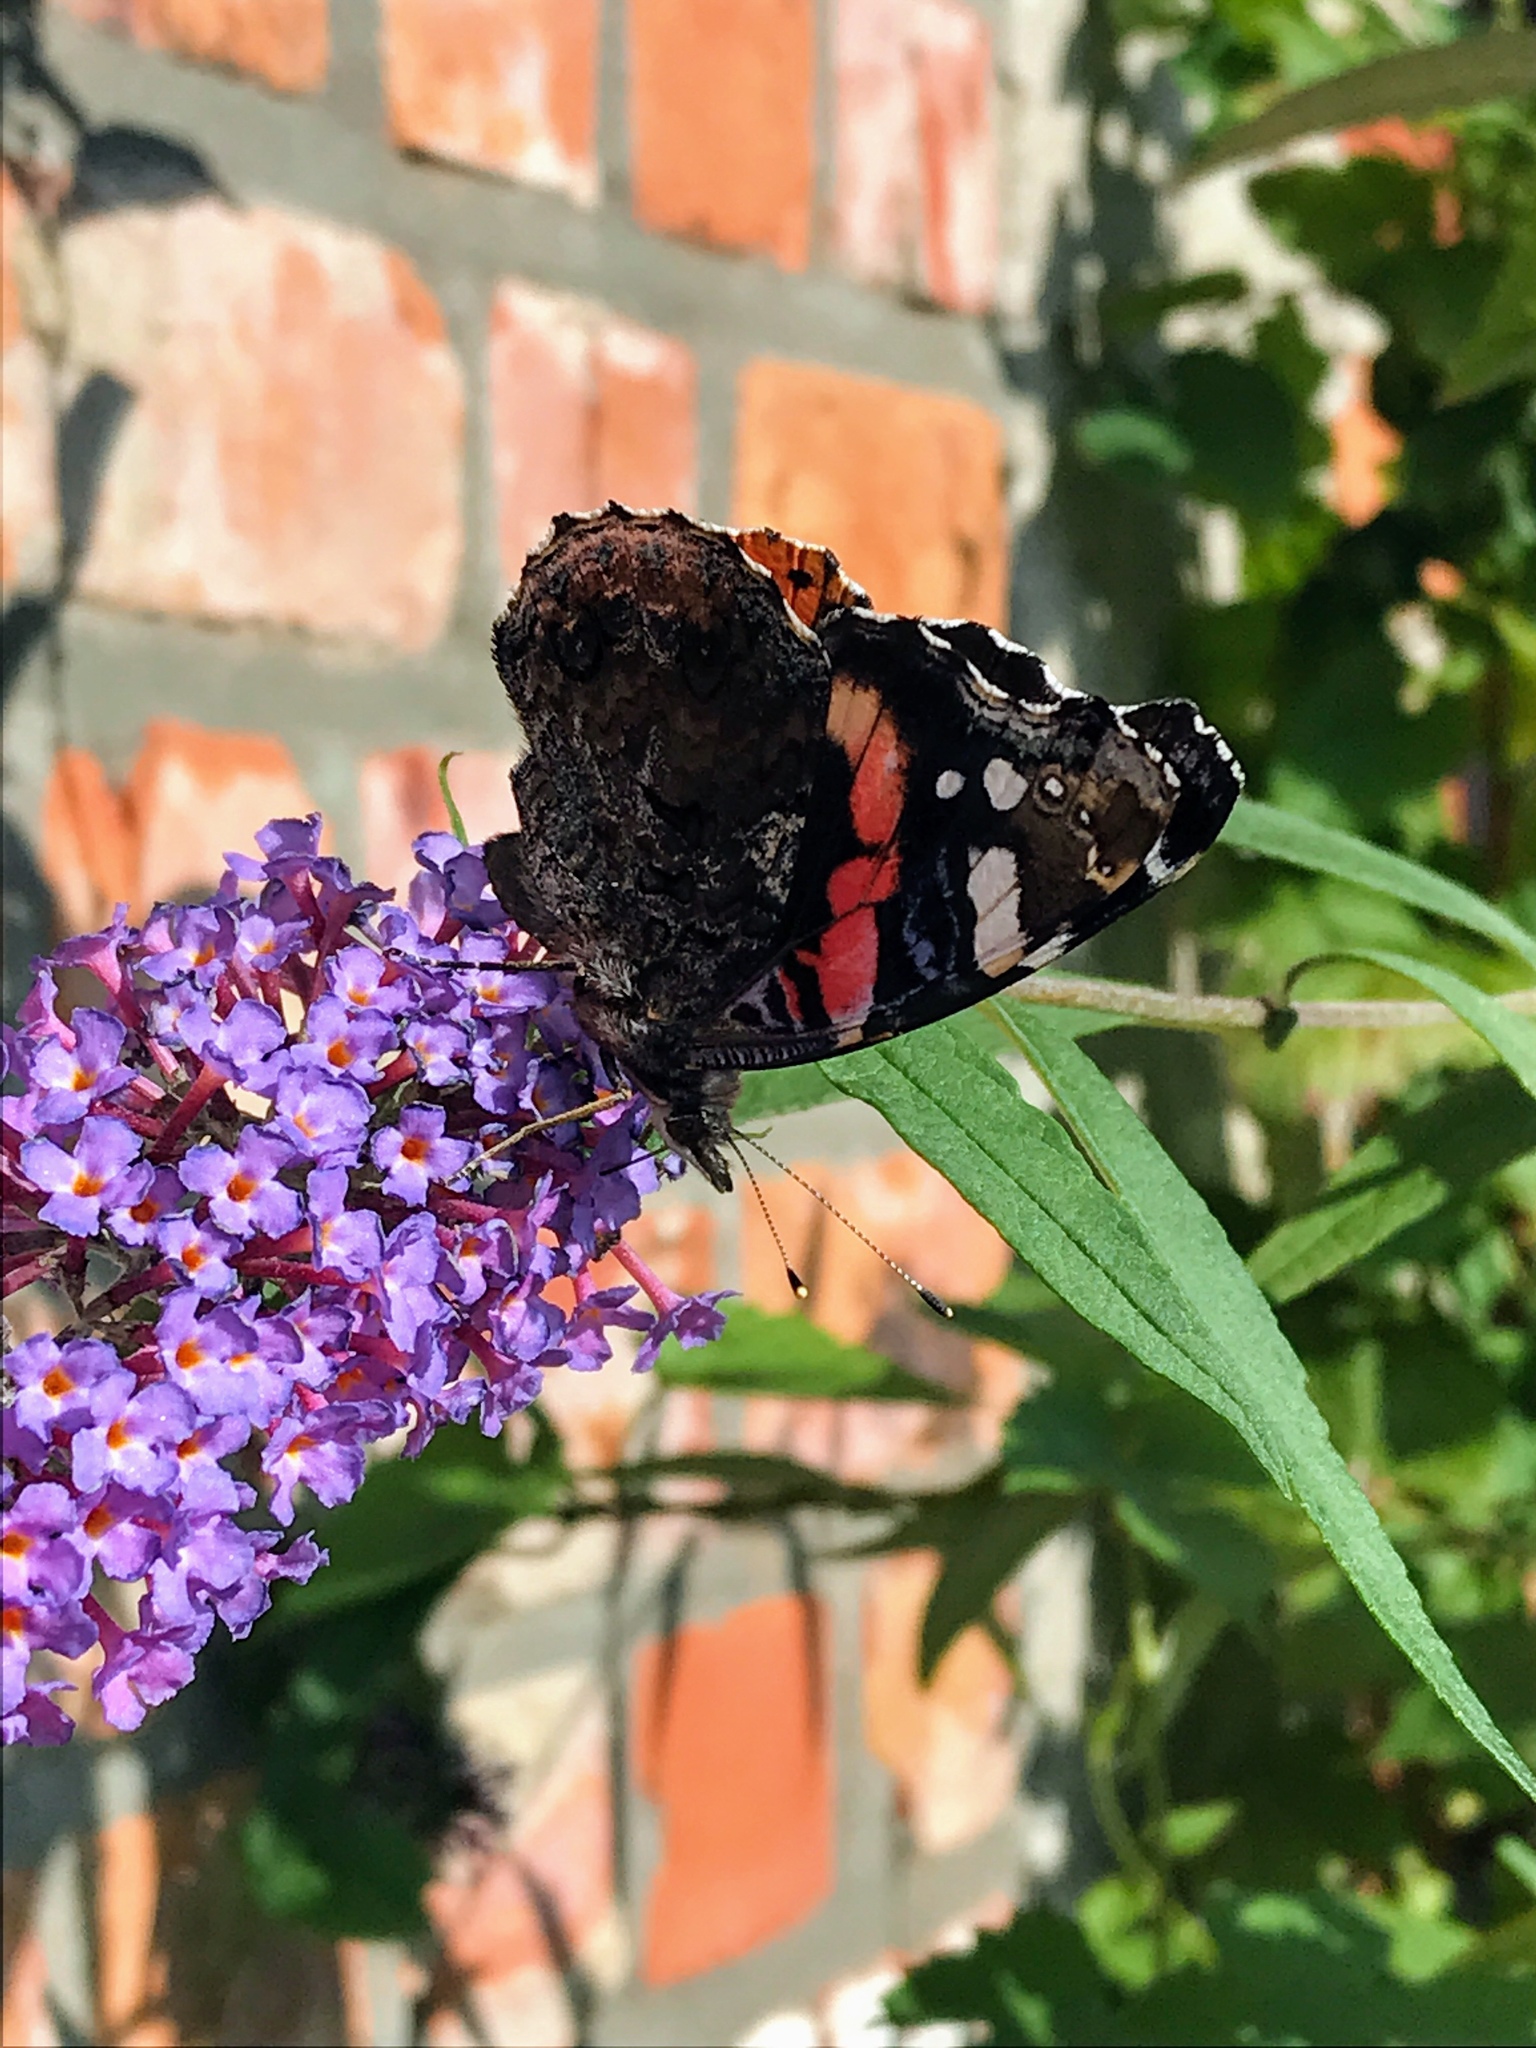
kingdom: Animalia
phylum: Arthropoda
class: Insecta
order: Lepidoptera
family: Nymphalidae
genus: Vanessa
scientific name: Vanessa atalanta
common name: Red admiral
